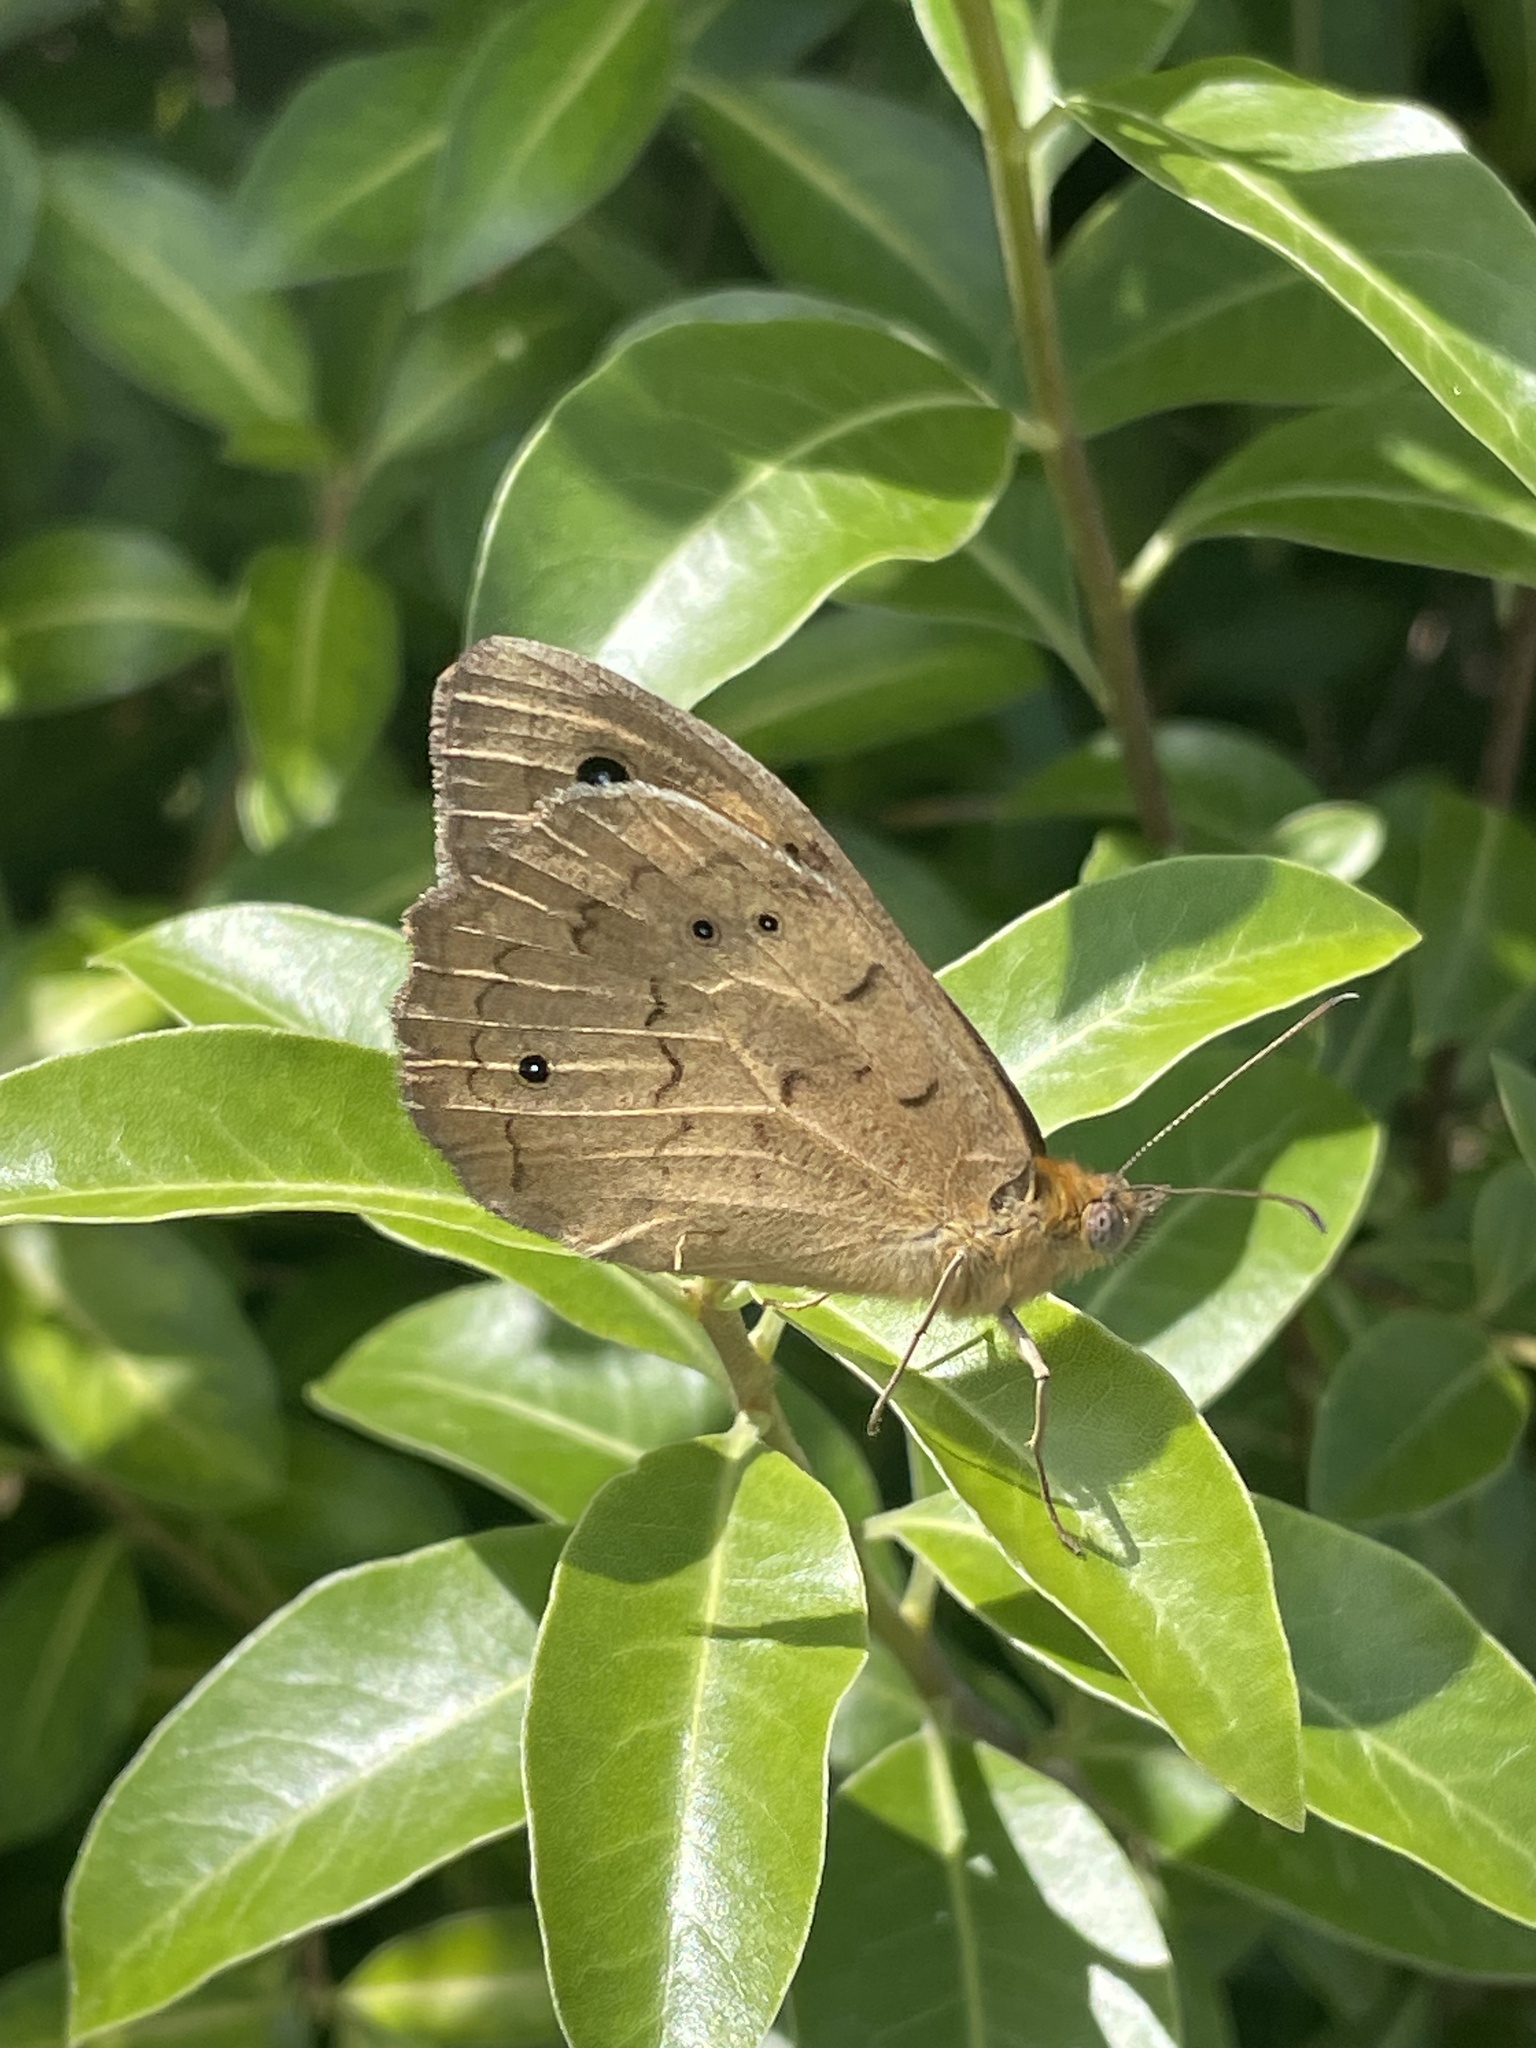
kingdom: Animalia
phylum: Arthropoda
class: Insecta
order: Lepidoptera
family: Nymphalidae
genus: Heteronympha
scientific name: Heteronympha merope
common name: Common brown
